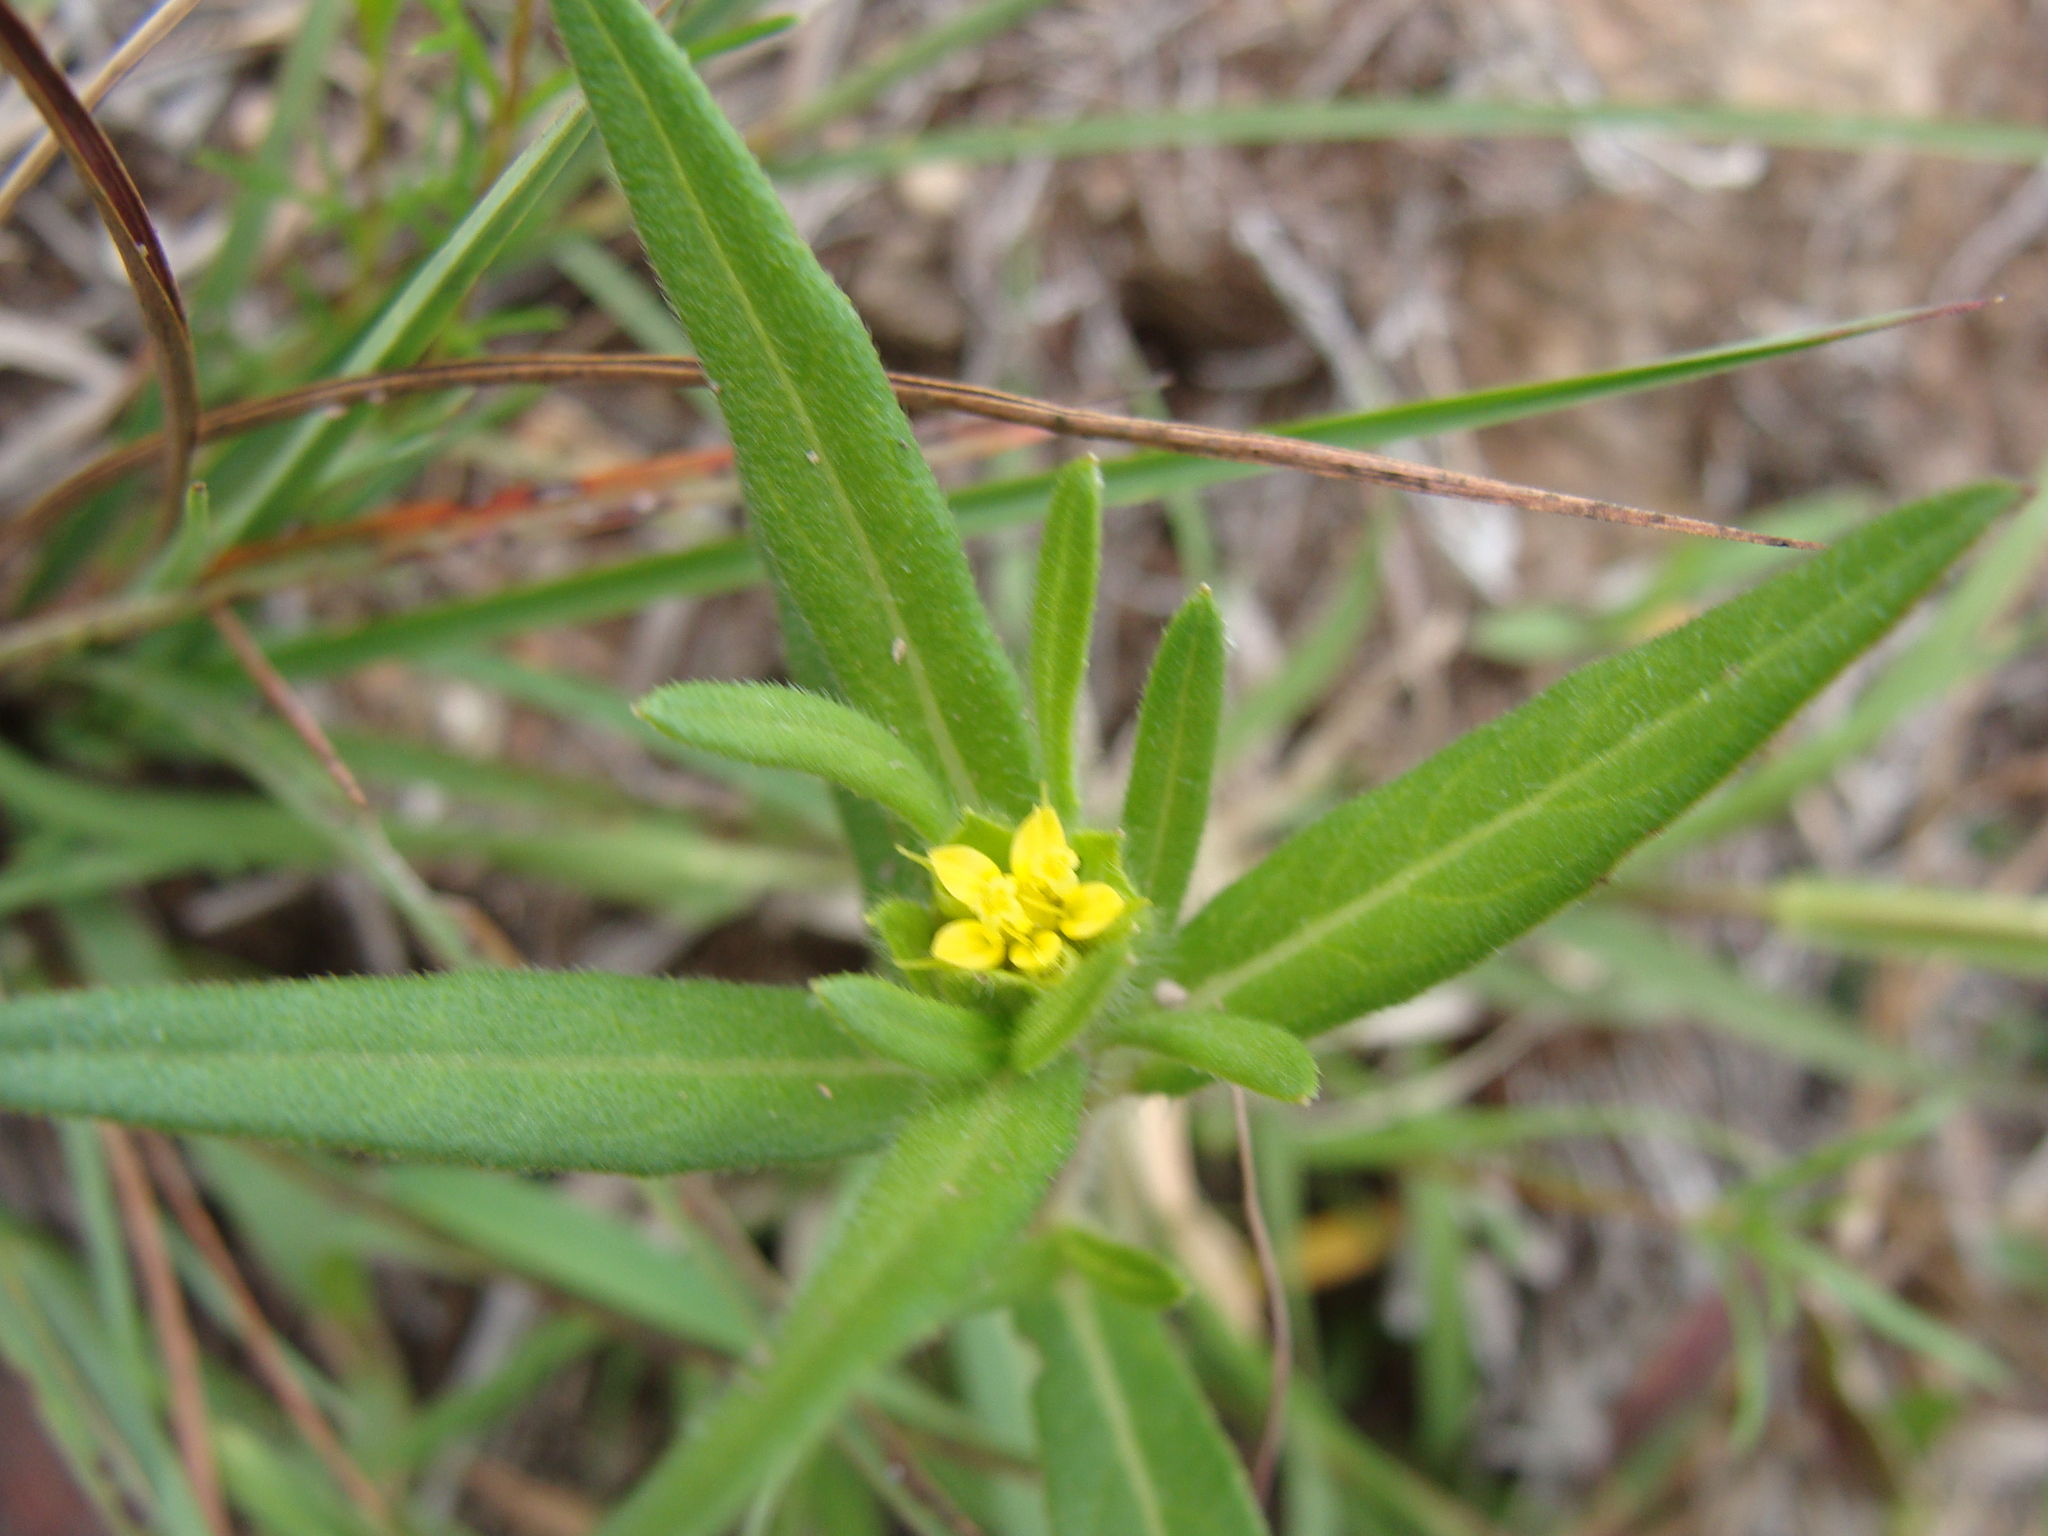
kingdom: Plantae
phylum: Tracheophyta
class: Magnoliopsida
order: Asterales
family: Asteraceae
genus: Melampodium
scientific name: Melampodium sericeum
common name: Rough blackfoot
